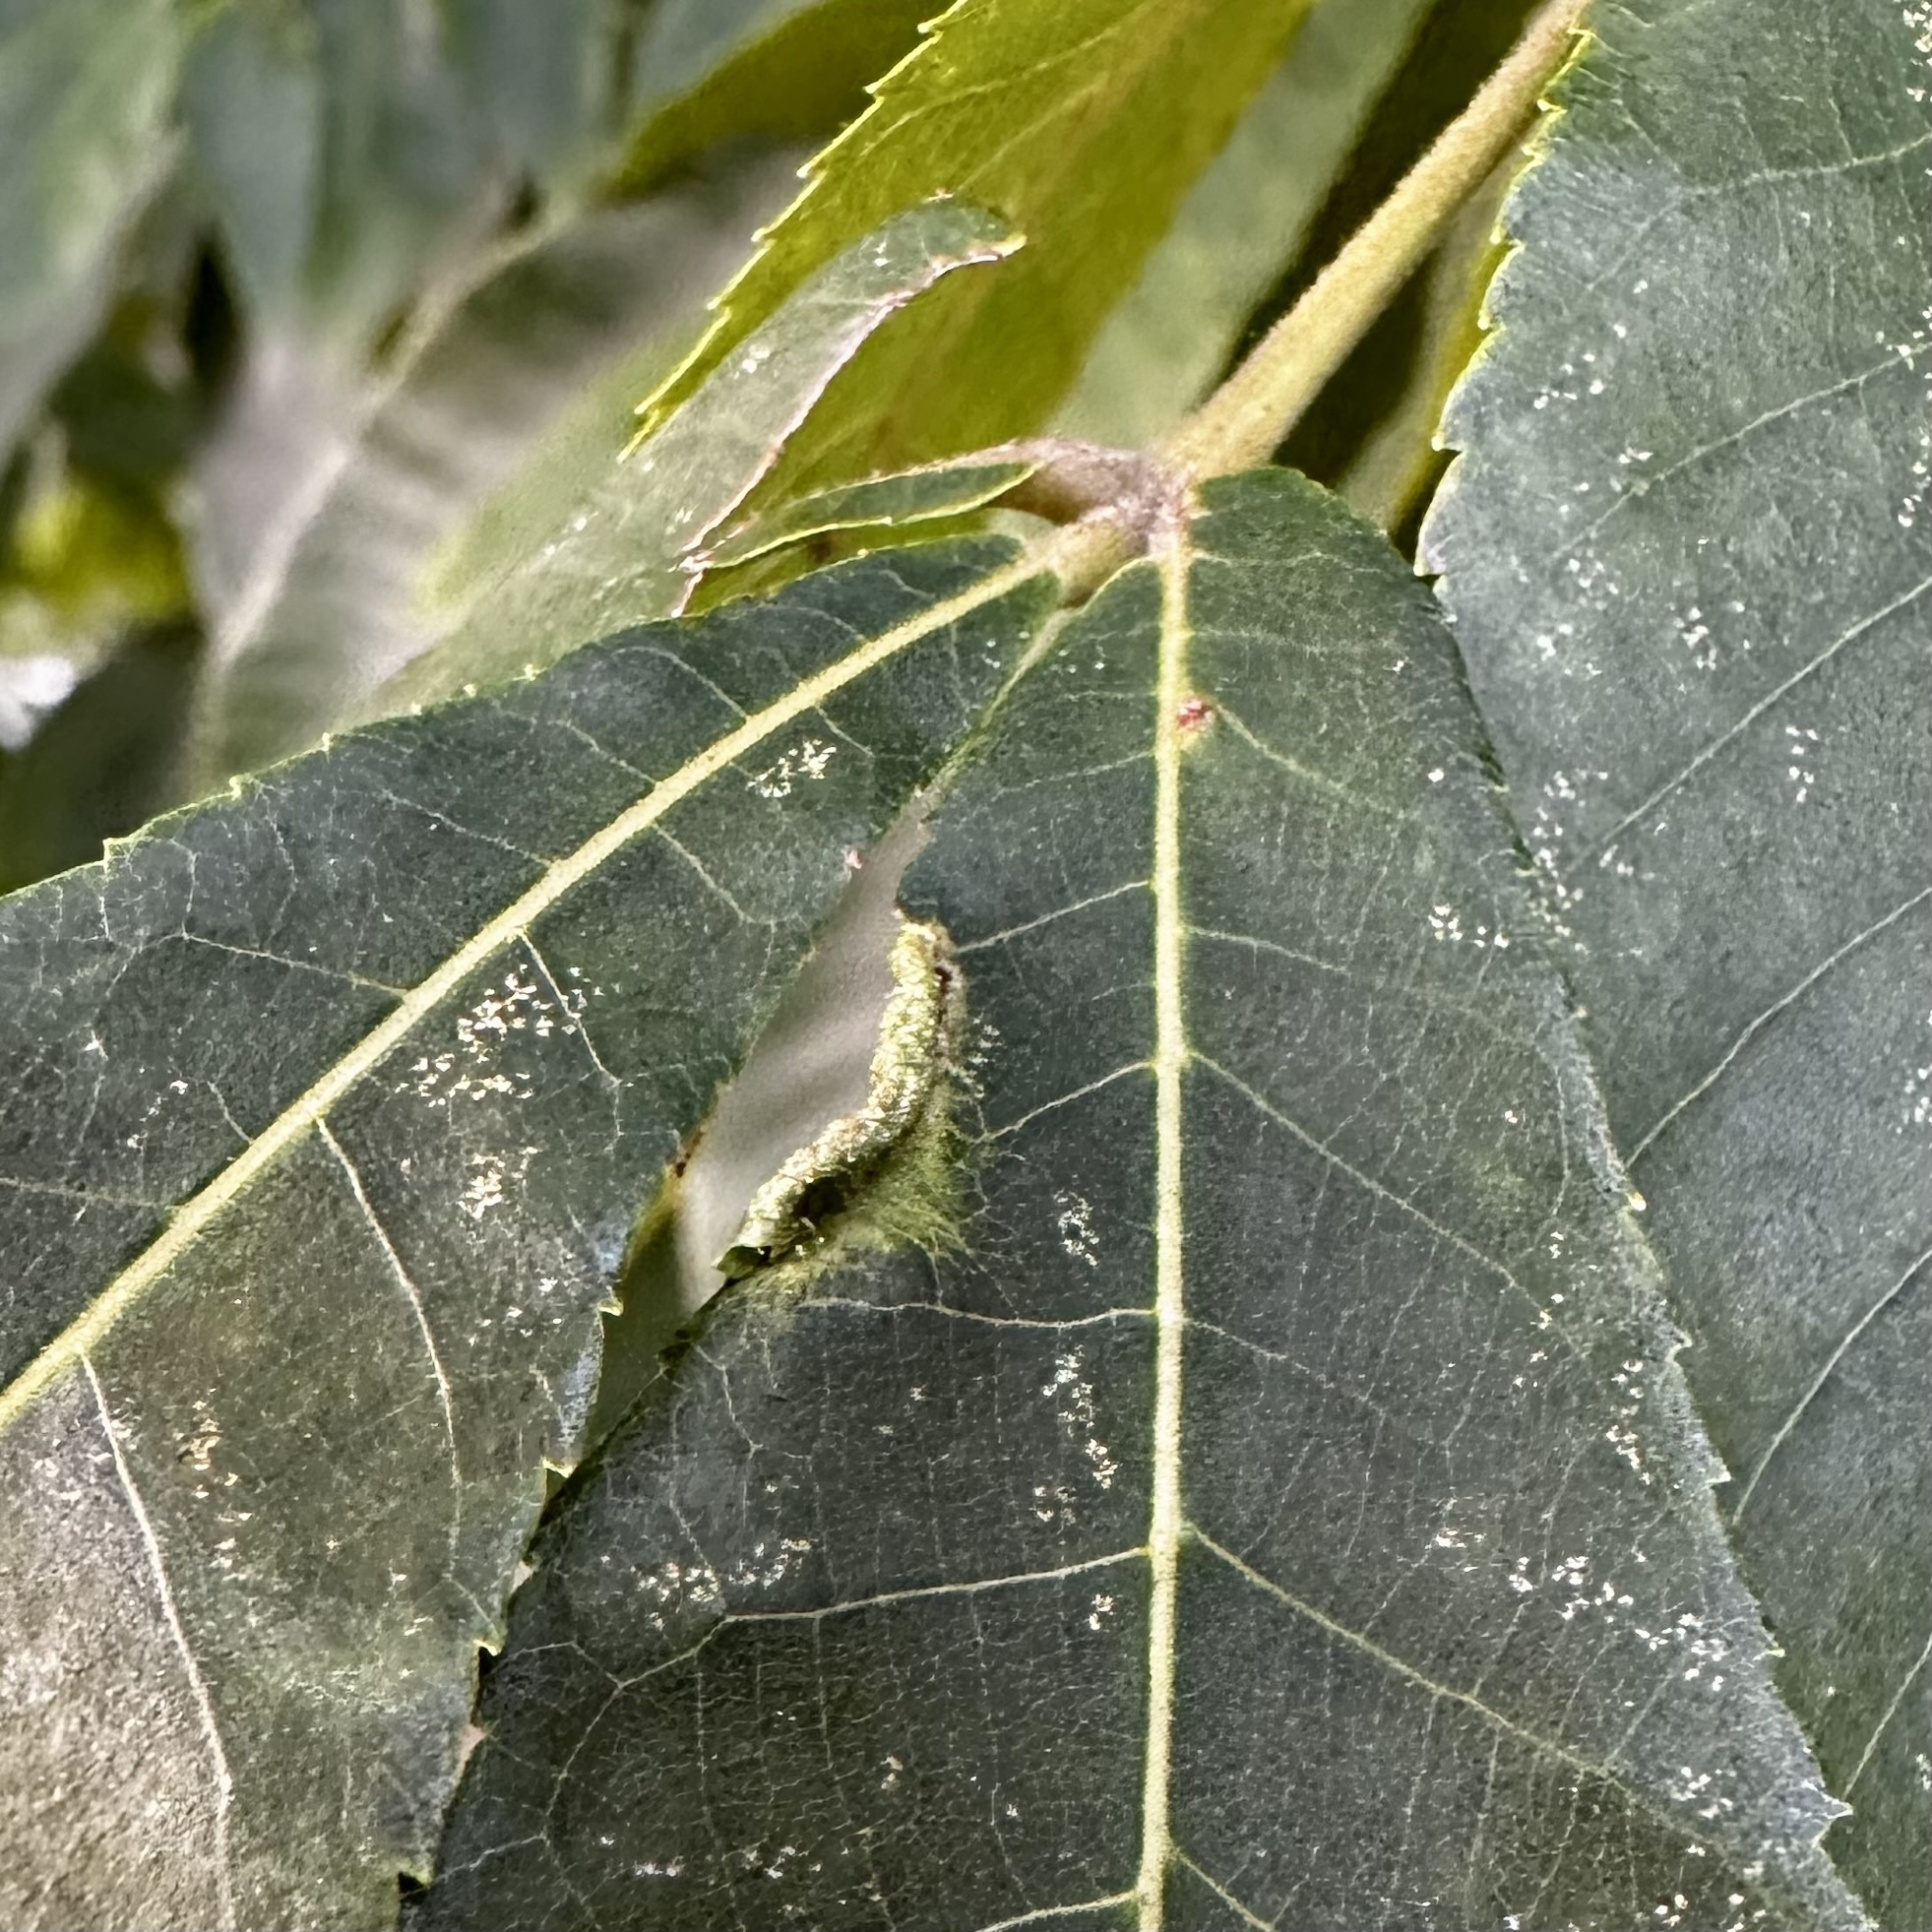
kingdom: Animalia
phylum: Arthropoda
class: Arachnida
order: Trombidiformes
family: Eriophyidae
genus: Aceria
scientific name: Aceria carlinae
